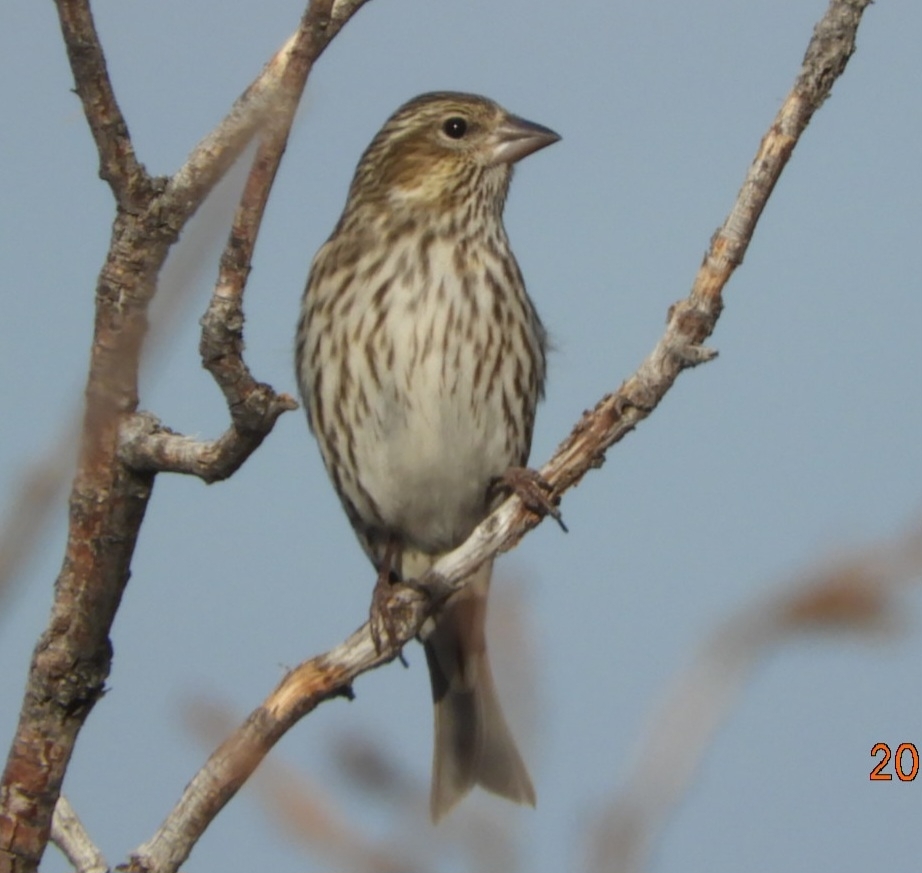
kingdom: Animalia
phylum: Chordata
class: Aves
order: Passeriformes
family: Fringillidae
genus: Haemorhous
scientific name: Haemorhous cassinii
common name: Cassin's finch
